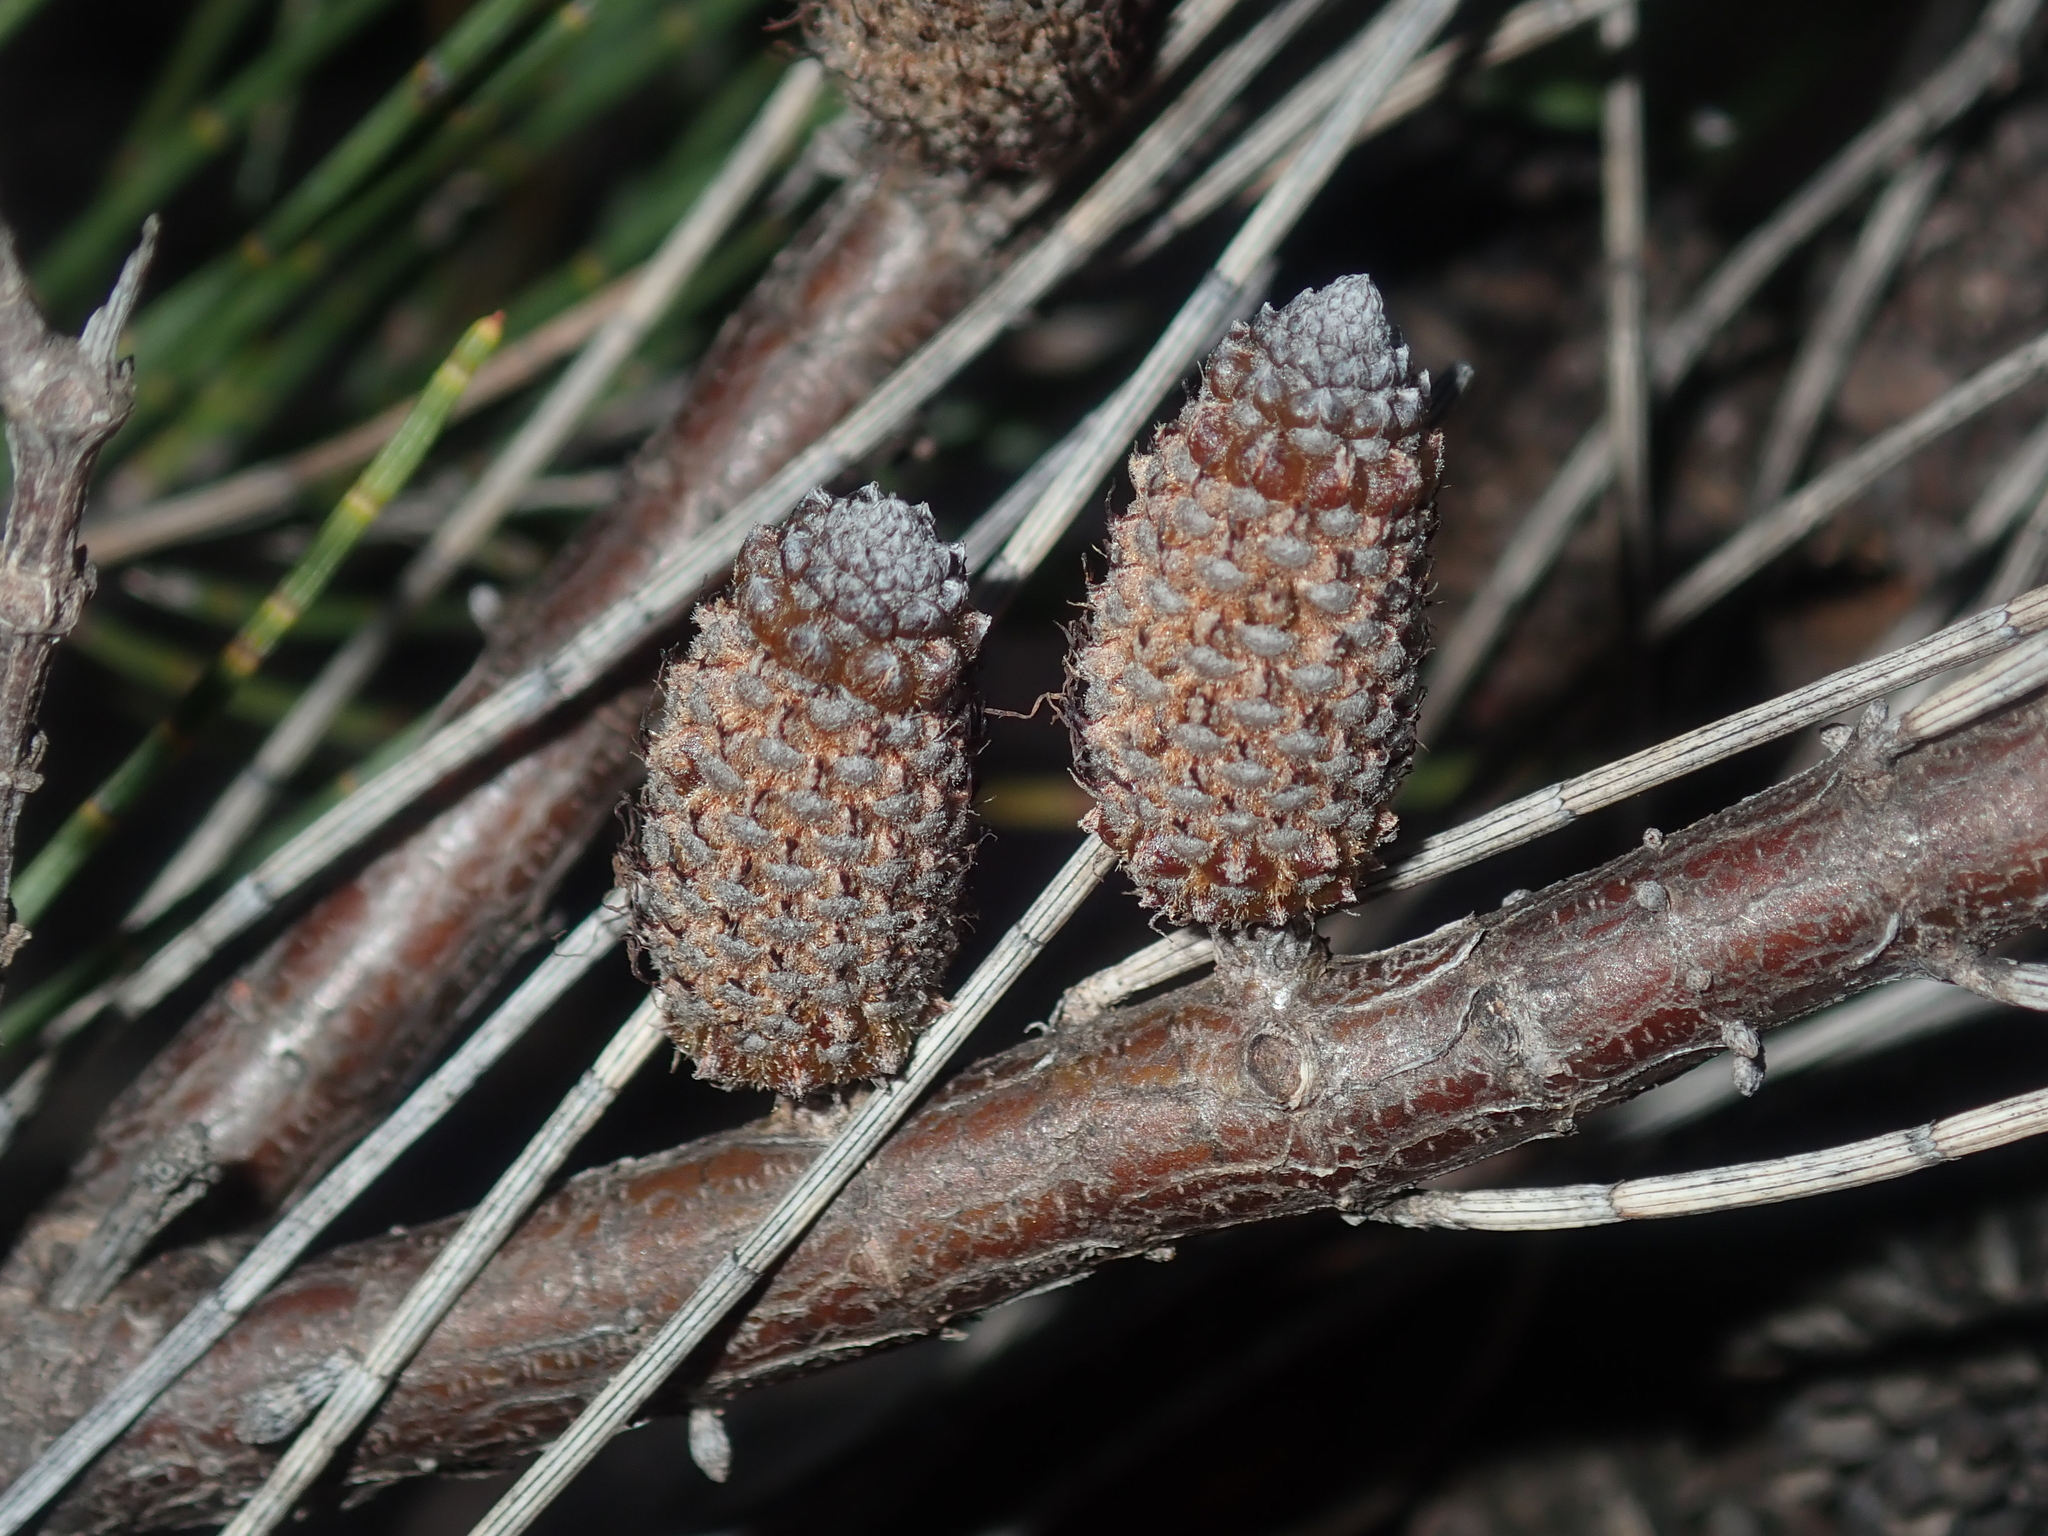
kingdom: Plantae
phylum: Tracheophyta
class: Magnoliopsida
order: Fagales
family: Casuarinaceae
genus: Allocasuarina
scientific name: Allocasuarina campestris
